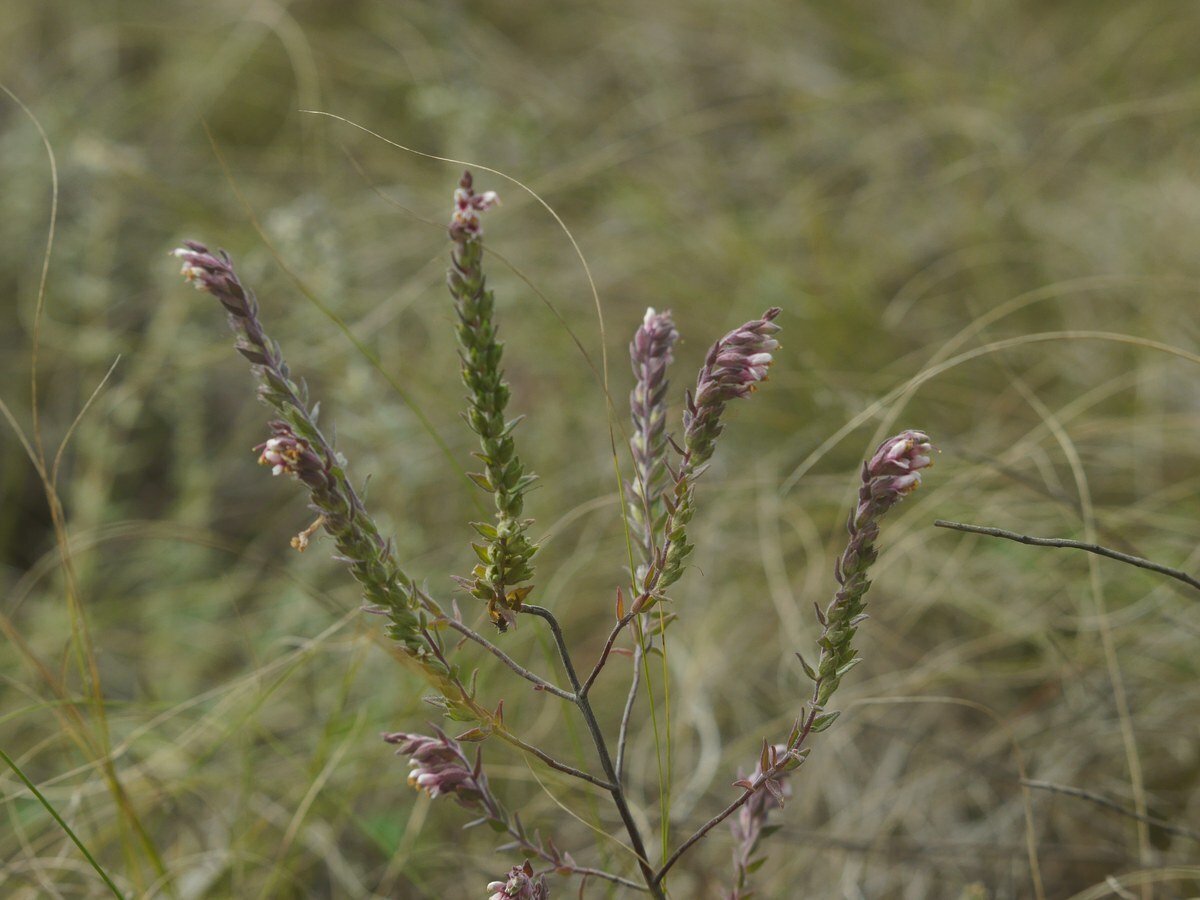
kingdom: Plantae
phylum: Tracheophyta
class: Magnoliopsida
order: Lamiales
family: Orobanchaceae
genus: Odontites
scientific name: Odontites vulgaris
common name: Broomrape
